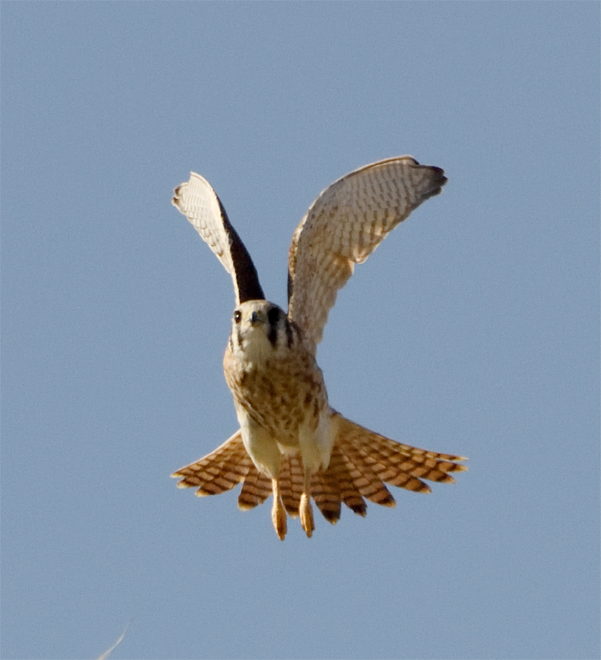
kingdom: Animalia
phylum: Chordata
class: Aves
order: Falconiformes
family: Falconidae
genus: Falco
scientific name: Falco sparverius
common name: American kestrel
